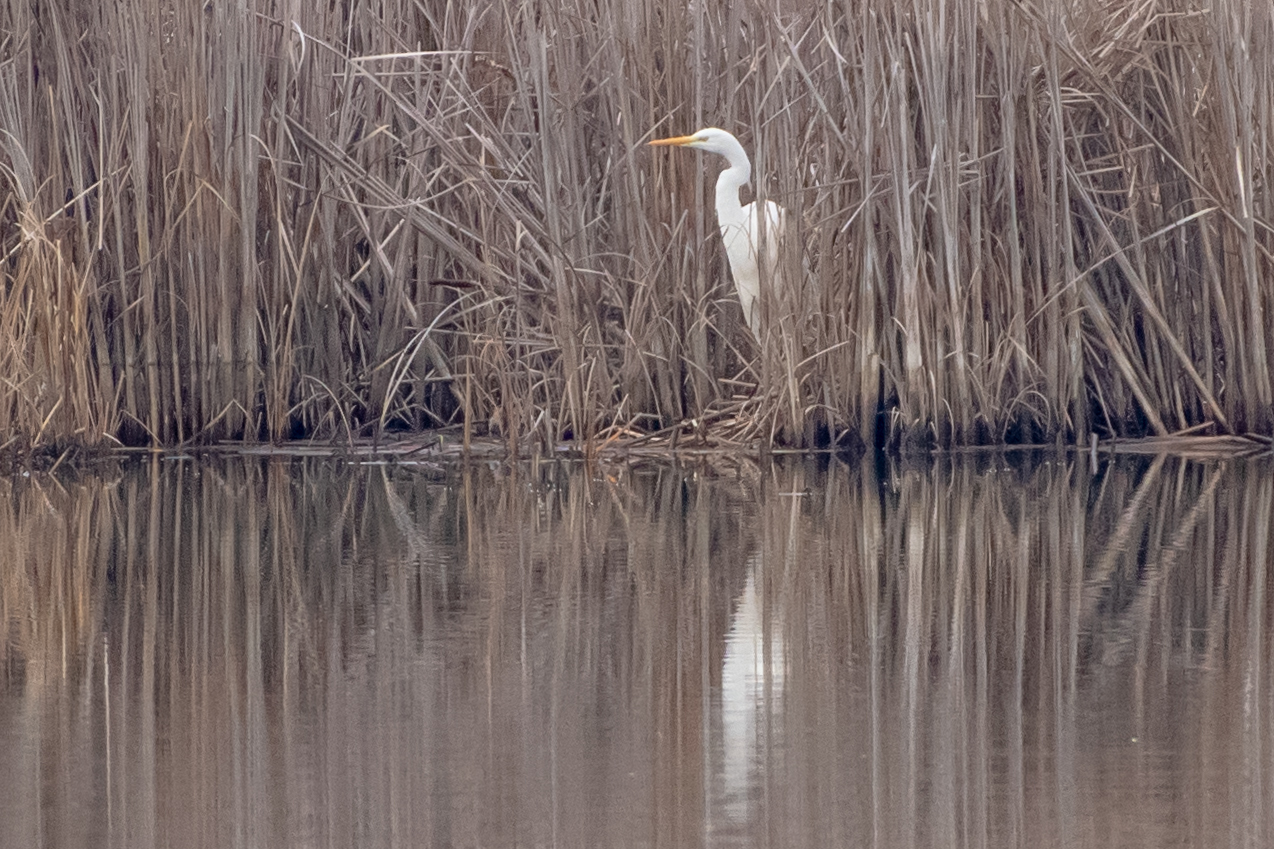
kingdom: Animalia
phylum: Chordata
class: Aves
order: Pelecaniformes
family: Ardeidae
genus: Ardea
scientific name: Ardea alba
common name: Great egret
